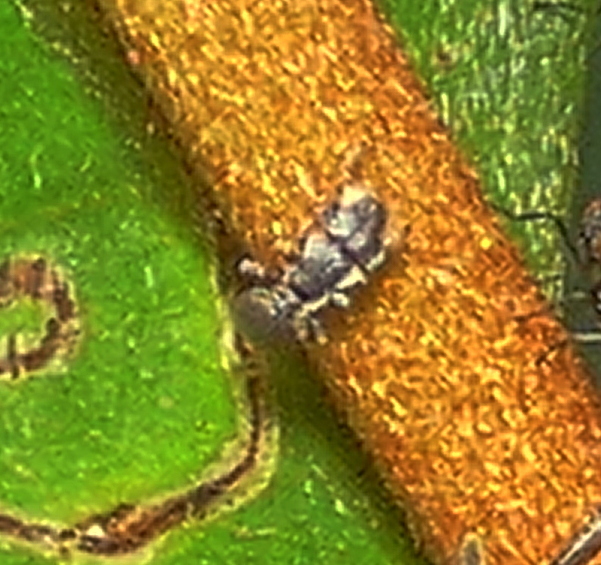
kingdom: Animalia
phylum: Arthropoda
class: Insecta
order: Hymenoptera
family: Formicidae
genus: Cephalotes
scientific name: Cephalotes
